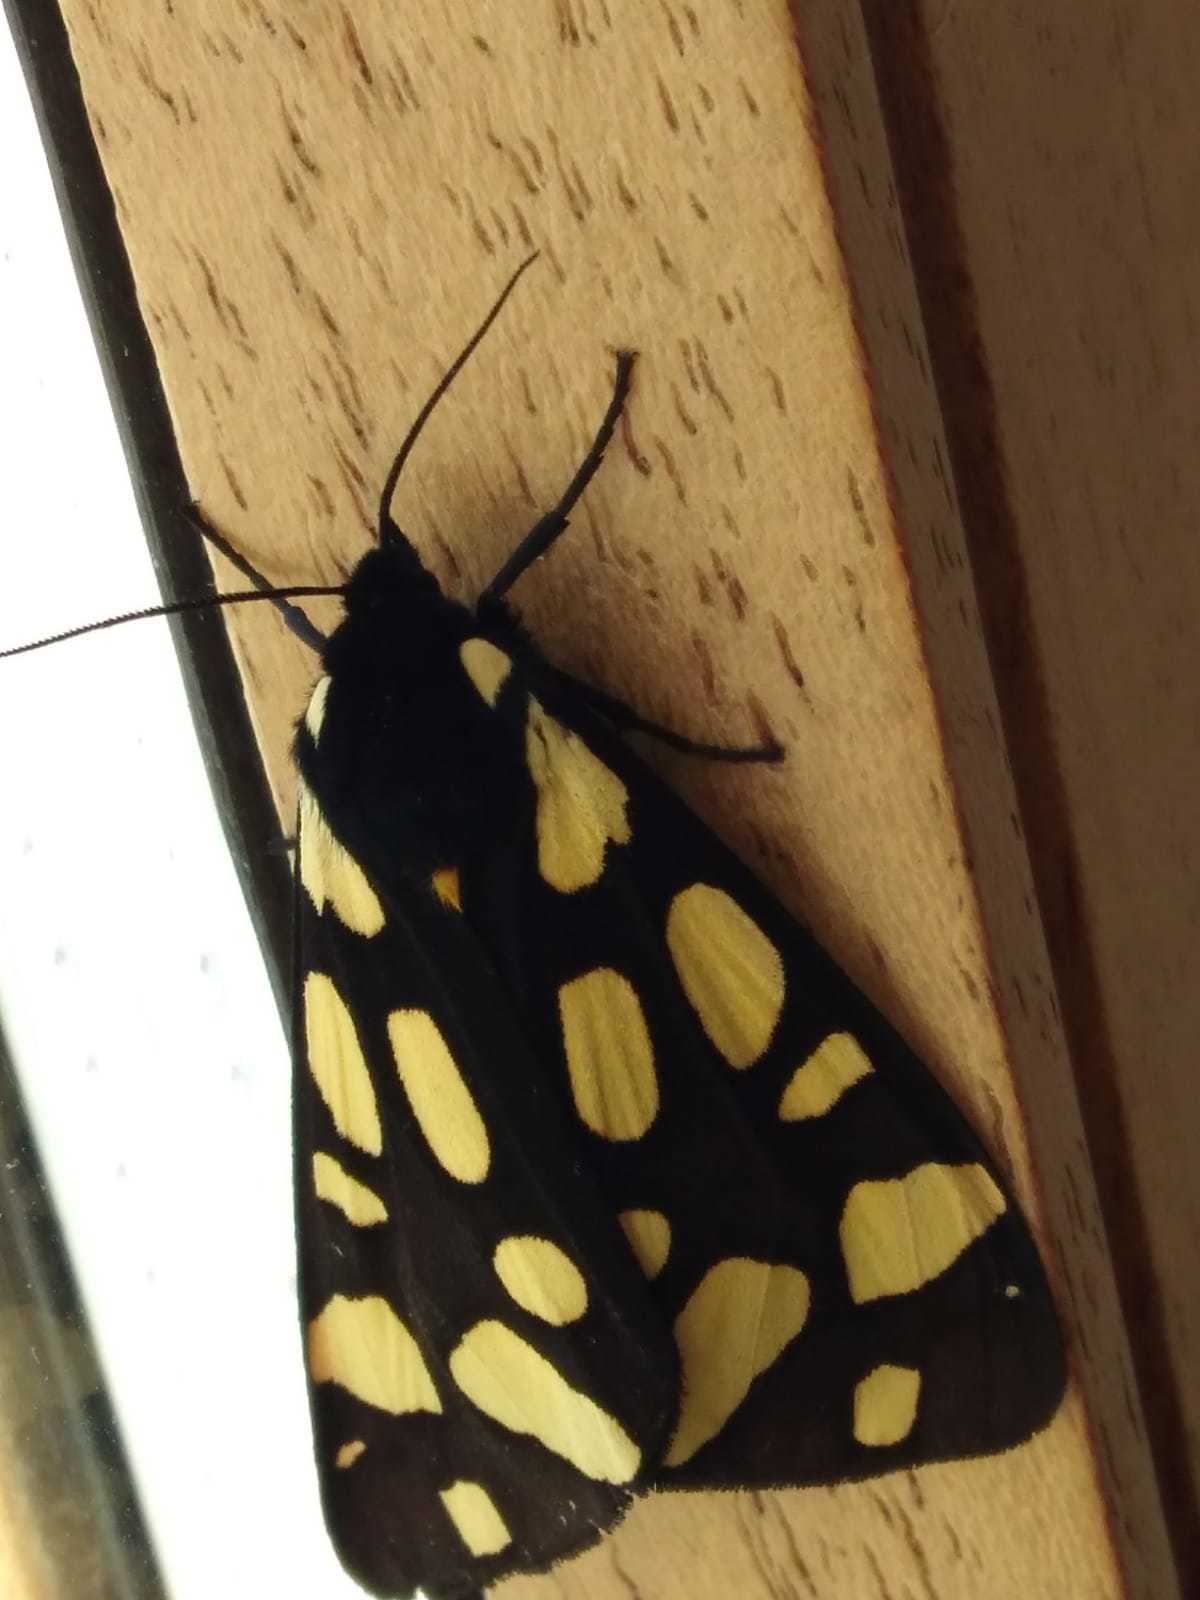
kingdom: Animalia
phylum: Arthropoda
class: Insecta
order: Lepidoptera
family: Erebidae
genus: Epicallia
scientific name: Epicallia villica
